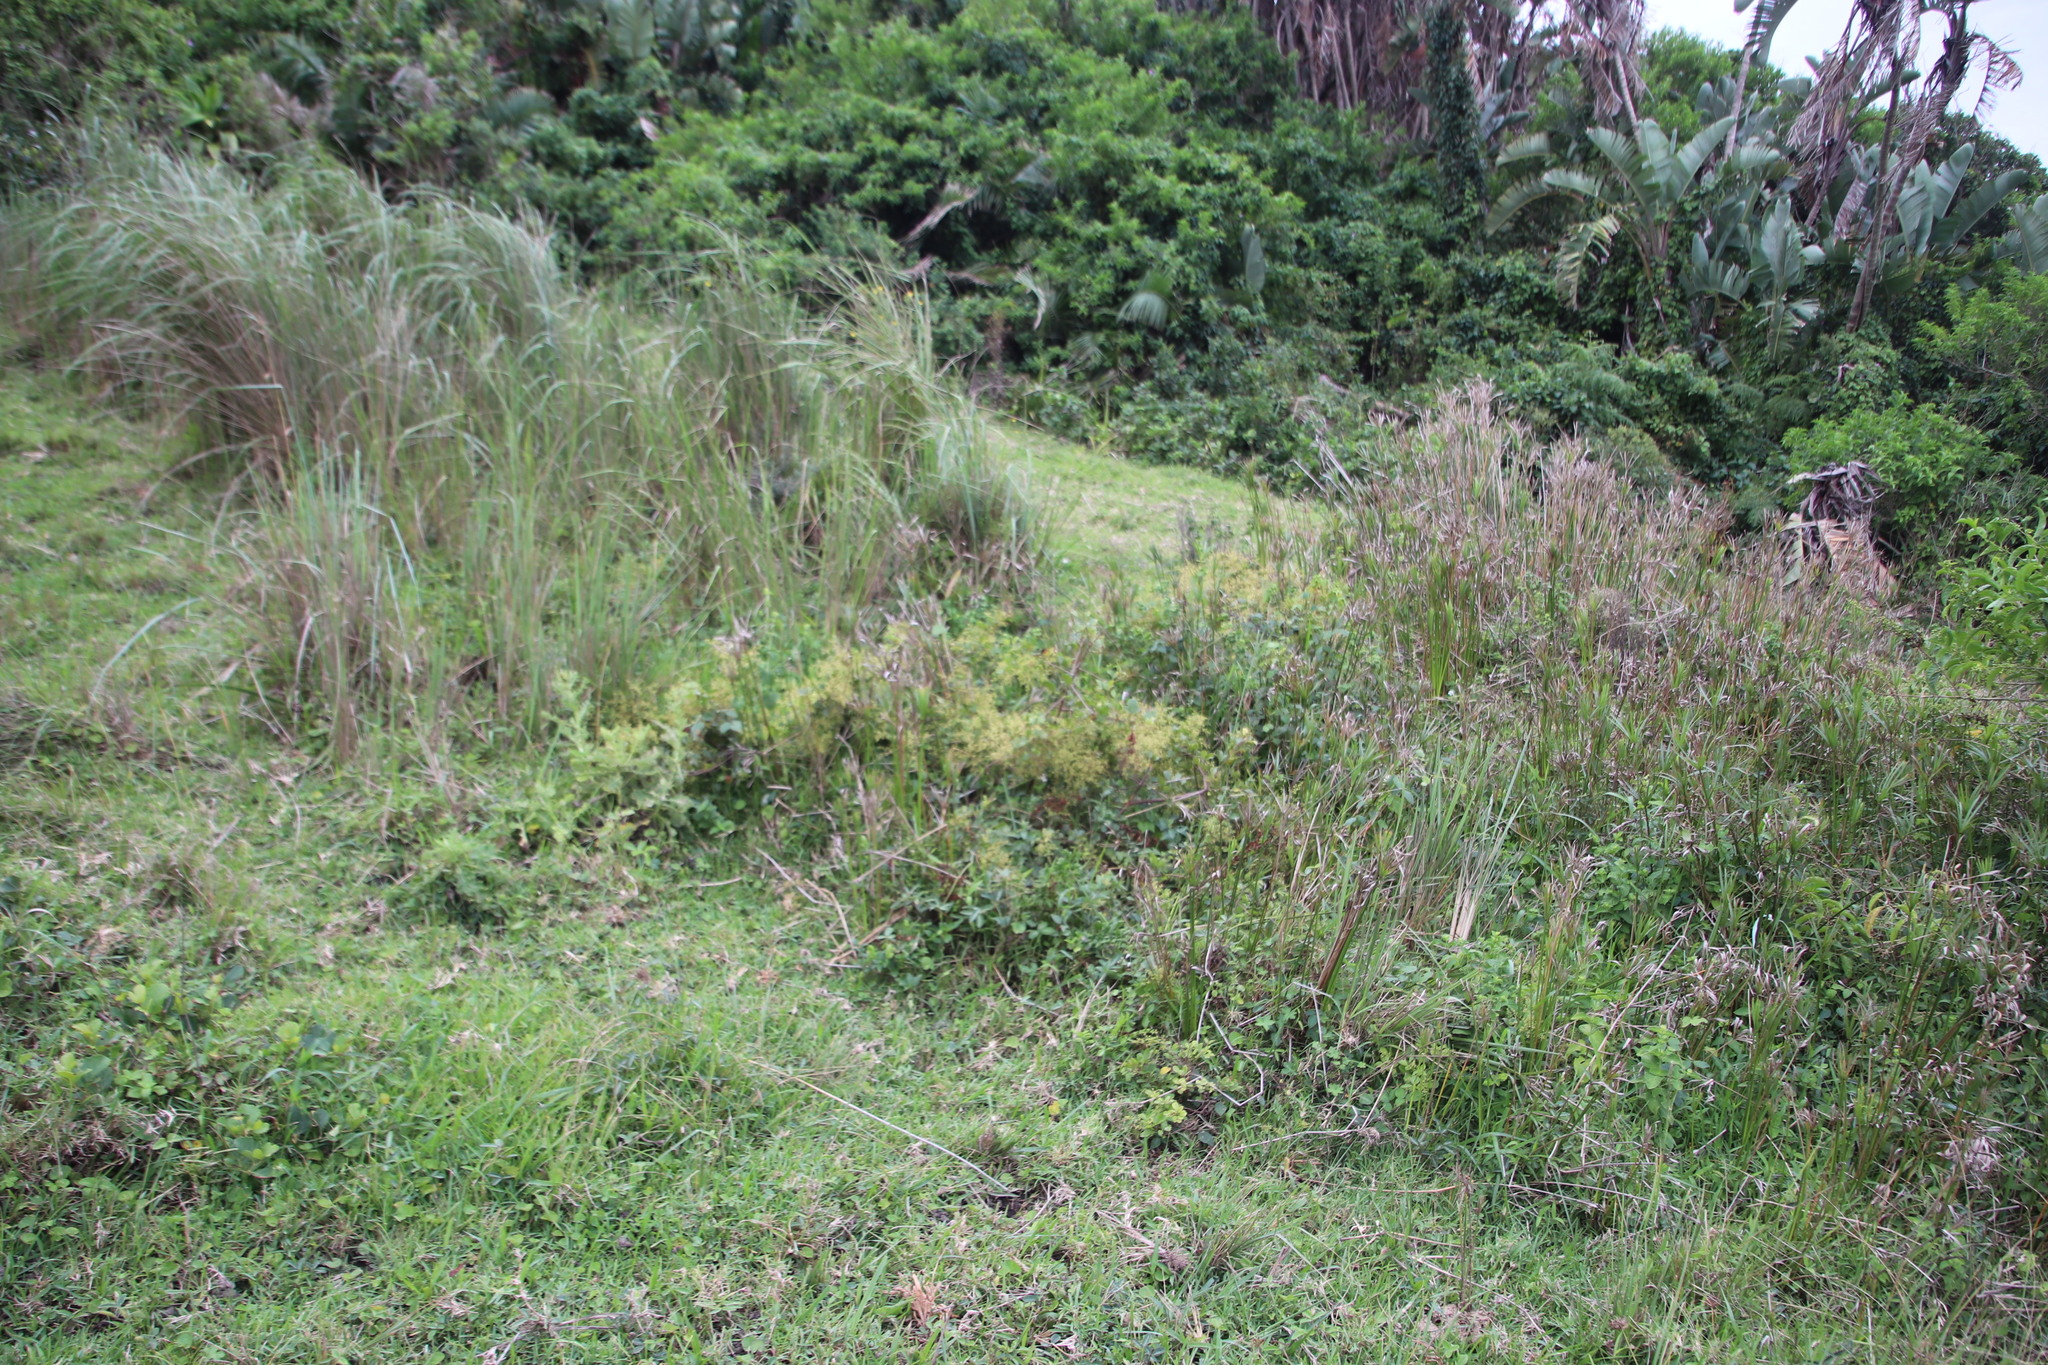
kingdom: Plantae
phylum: Tracheophyta
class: Magnoliopsida
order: Sapindales
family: Anacardiaceae
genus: Searsia
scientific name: Searsia nebulosa
